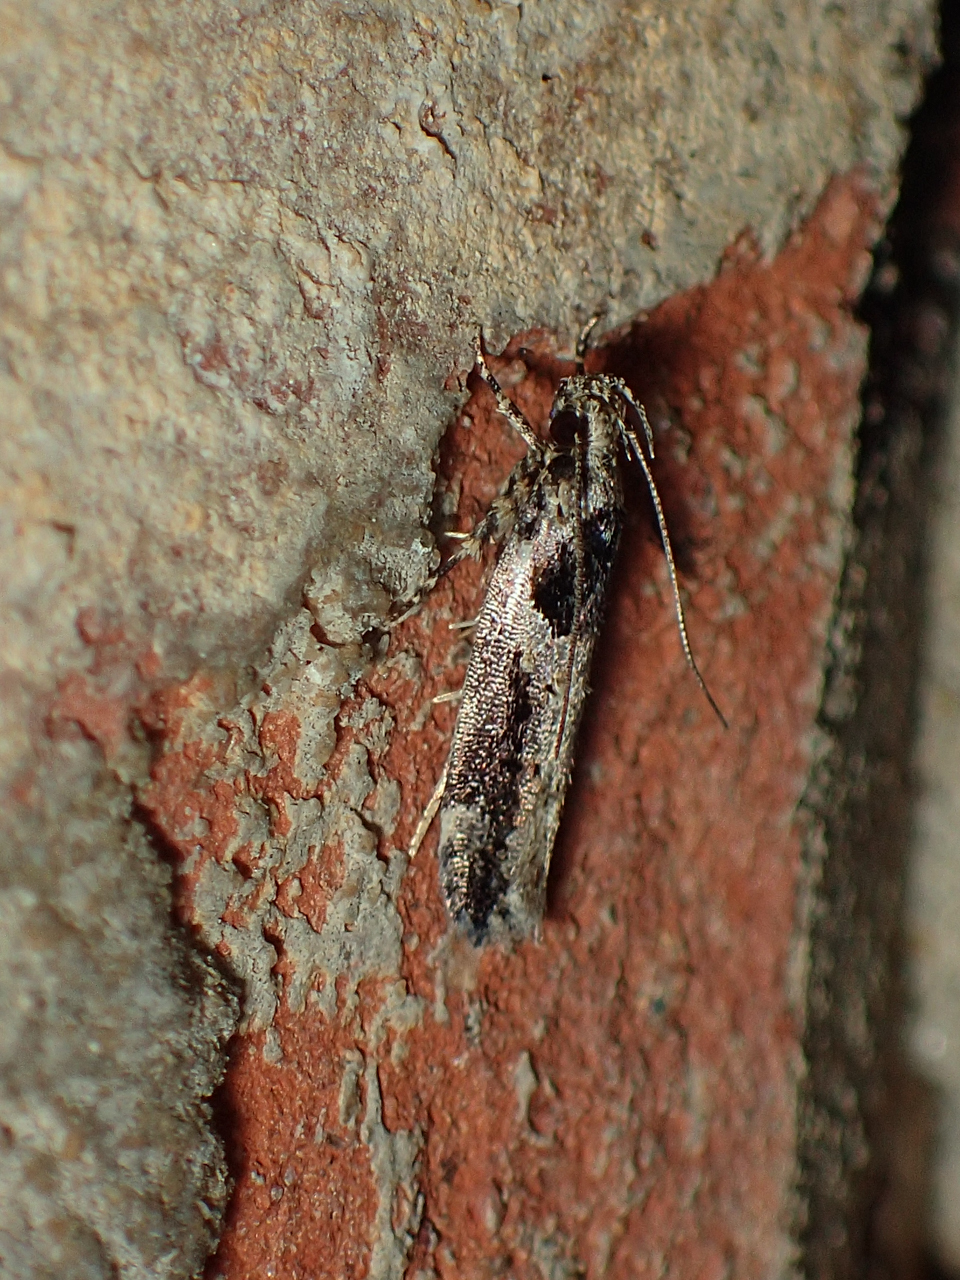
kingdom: Animalia
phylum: Arthropoda
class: Insecta
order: Lepidoptera
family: Gelechiidae
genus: Pseudochelaria
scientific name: Pseudochelaria walsinghami
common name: Walsingham's moth
